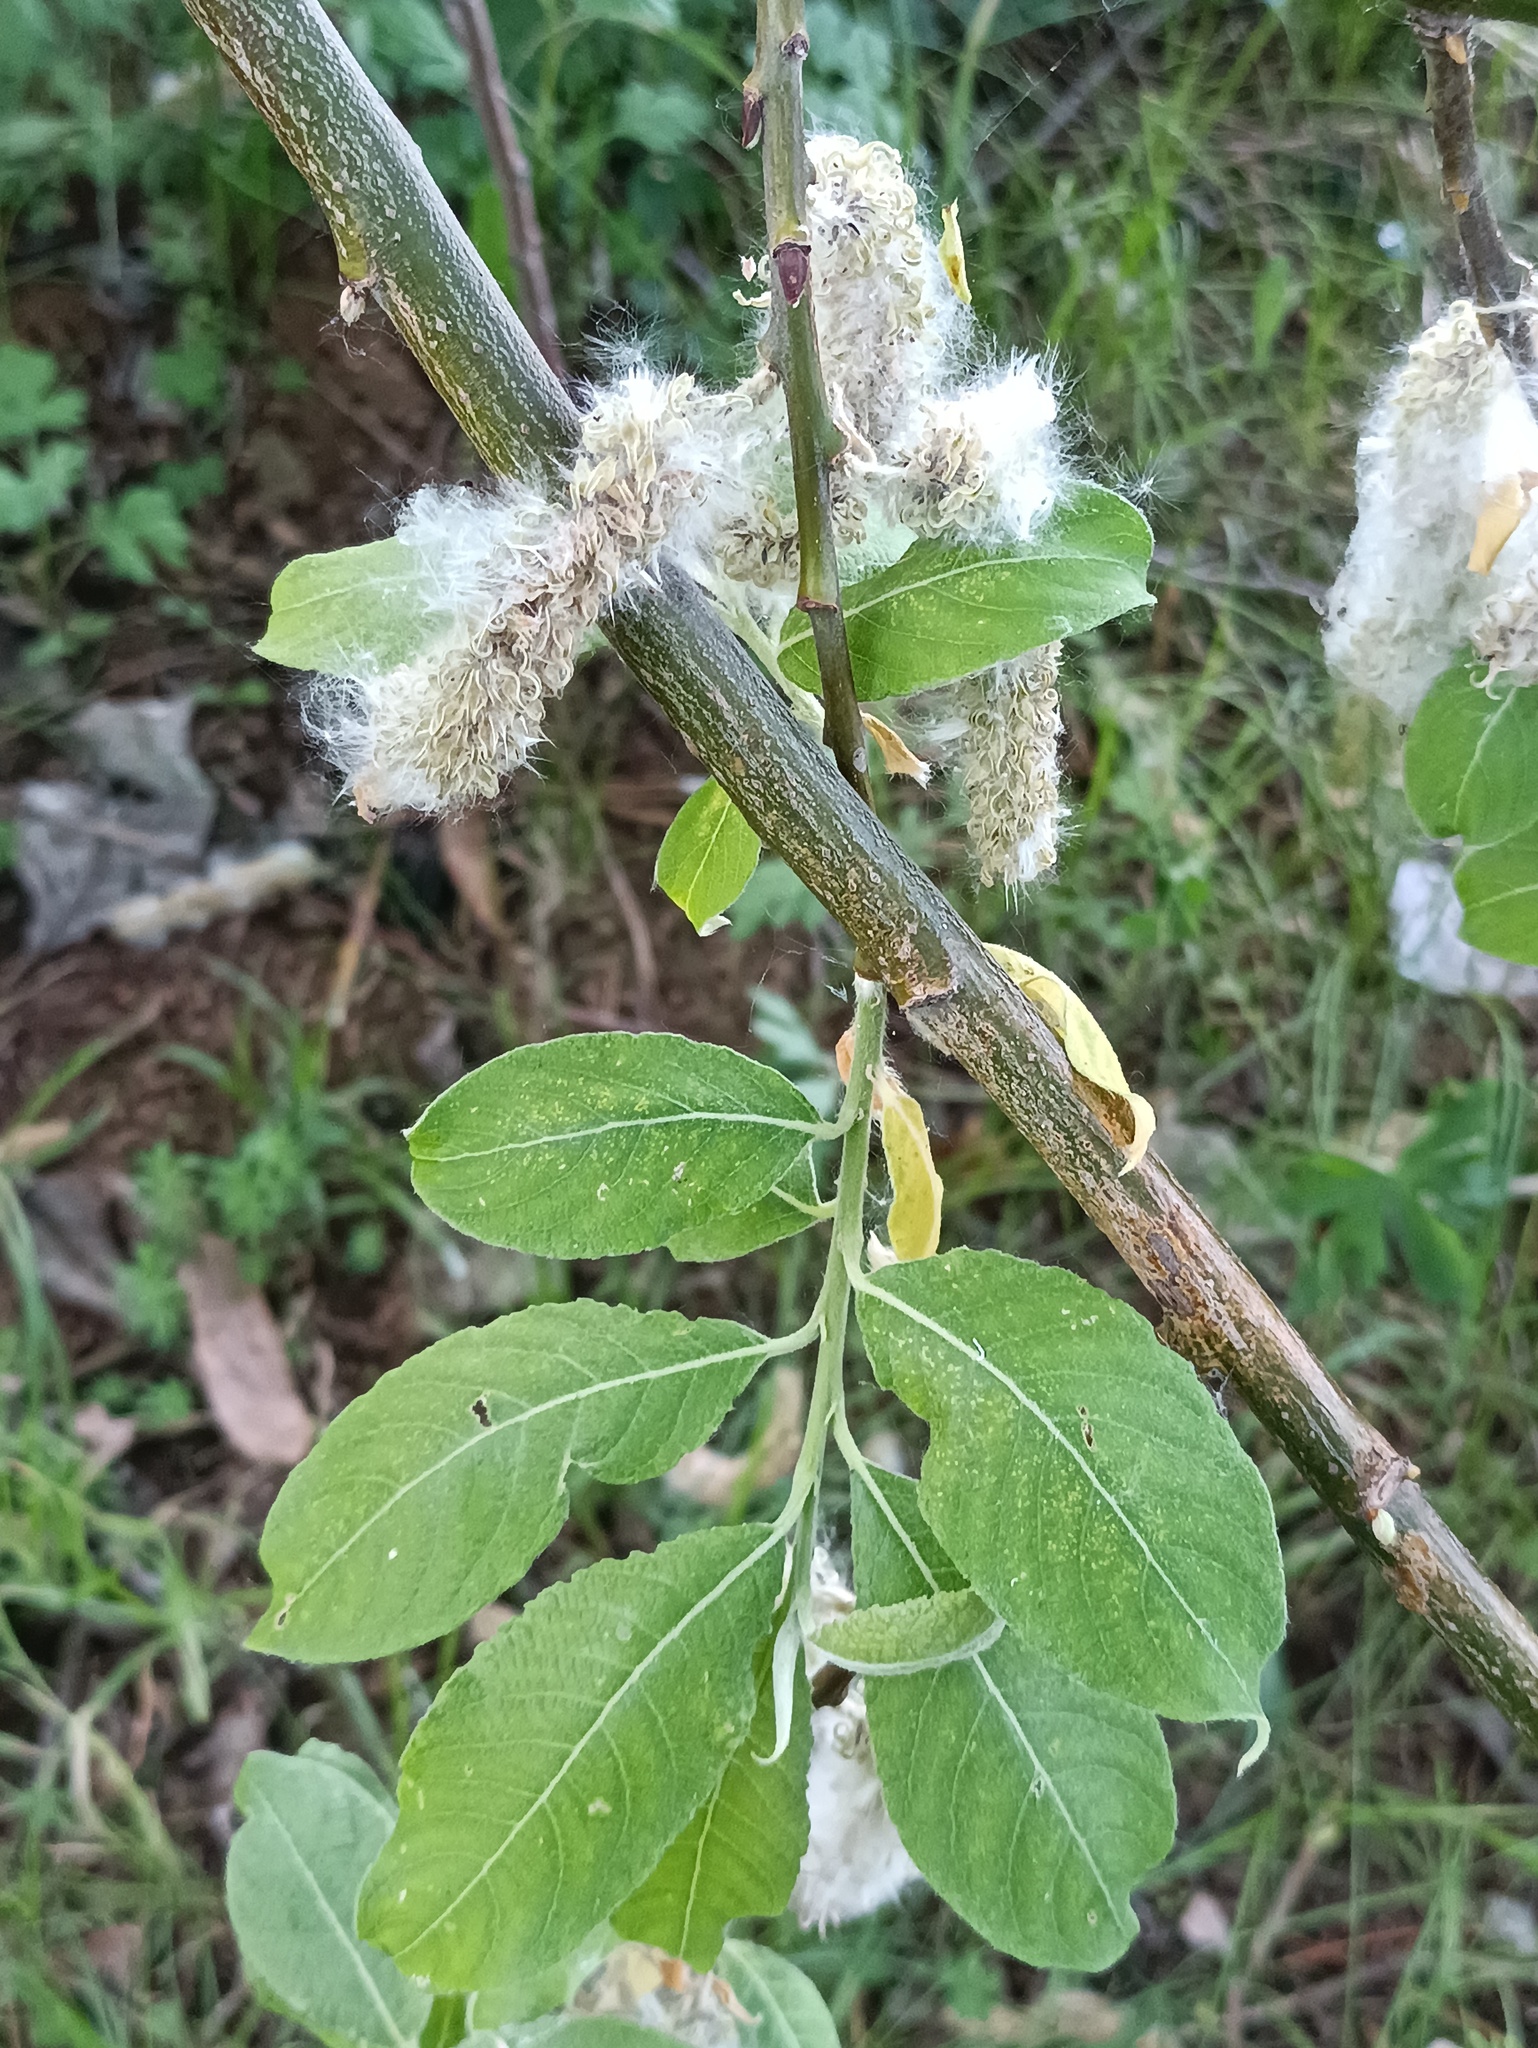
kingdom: Plantae
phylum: Tracheophyta
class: Magnoliopsida
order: Malpighiales
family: Salicaceae
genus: Salix
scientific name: Salix cinerea
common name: Common sallow
